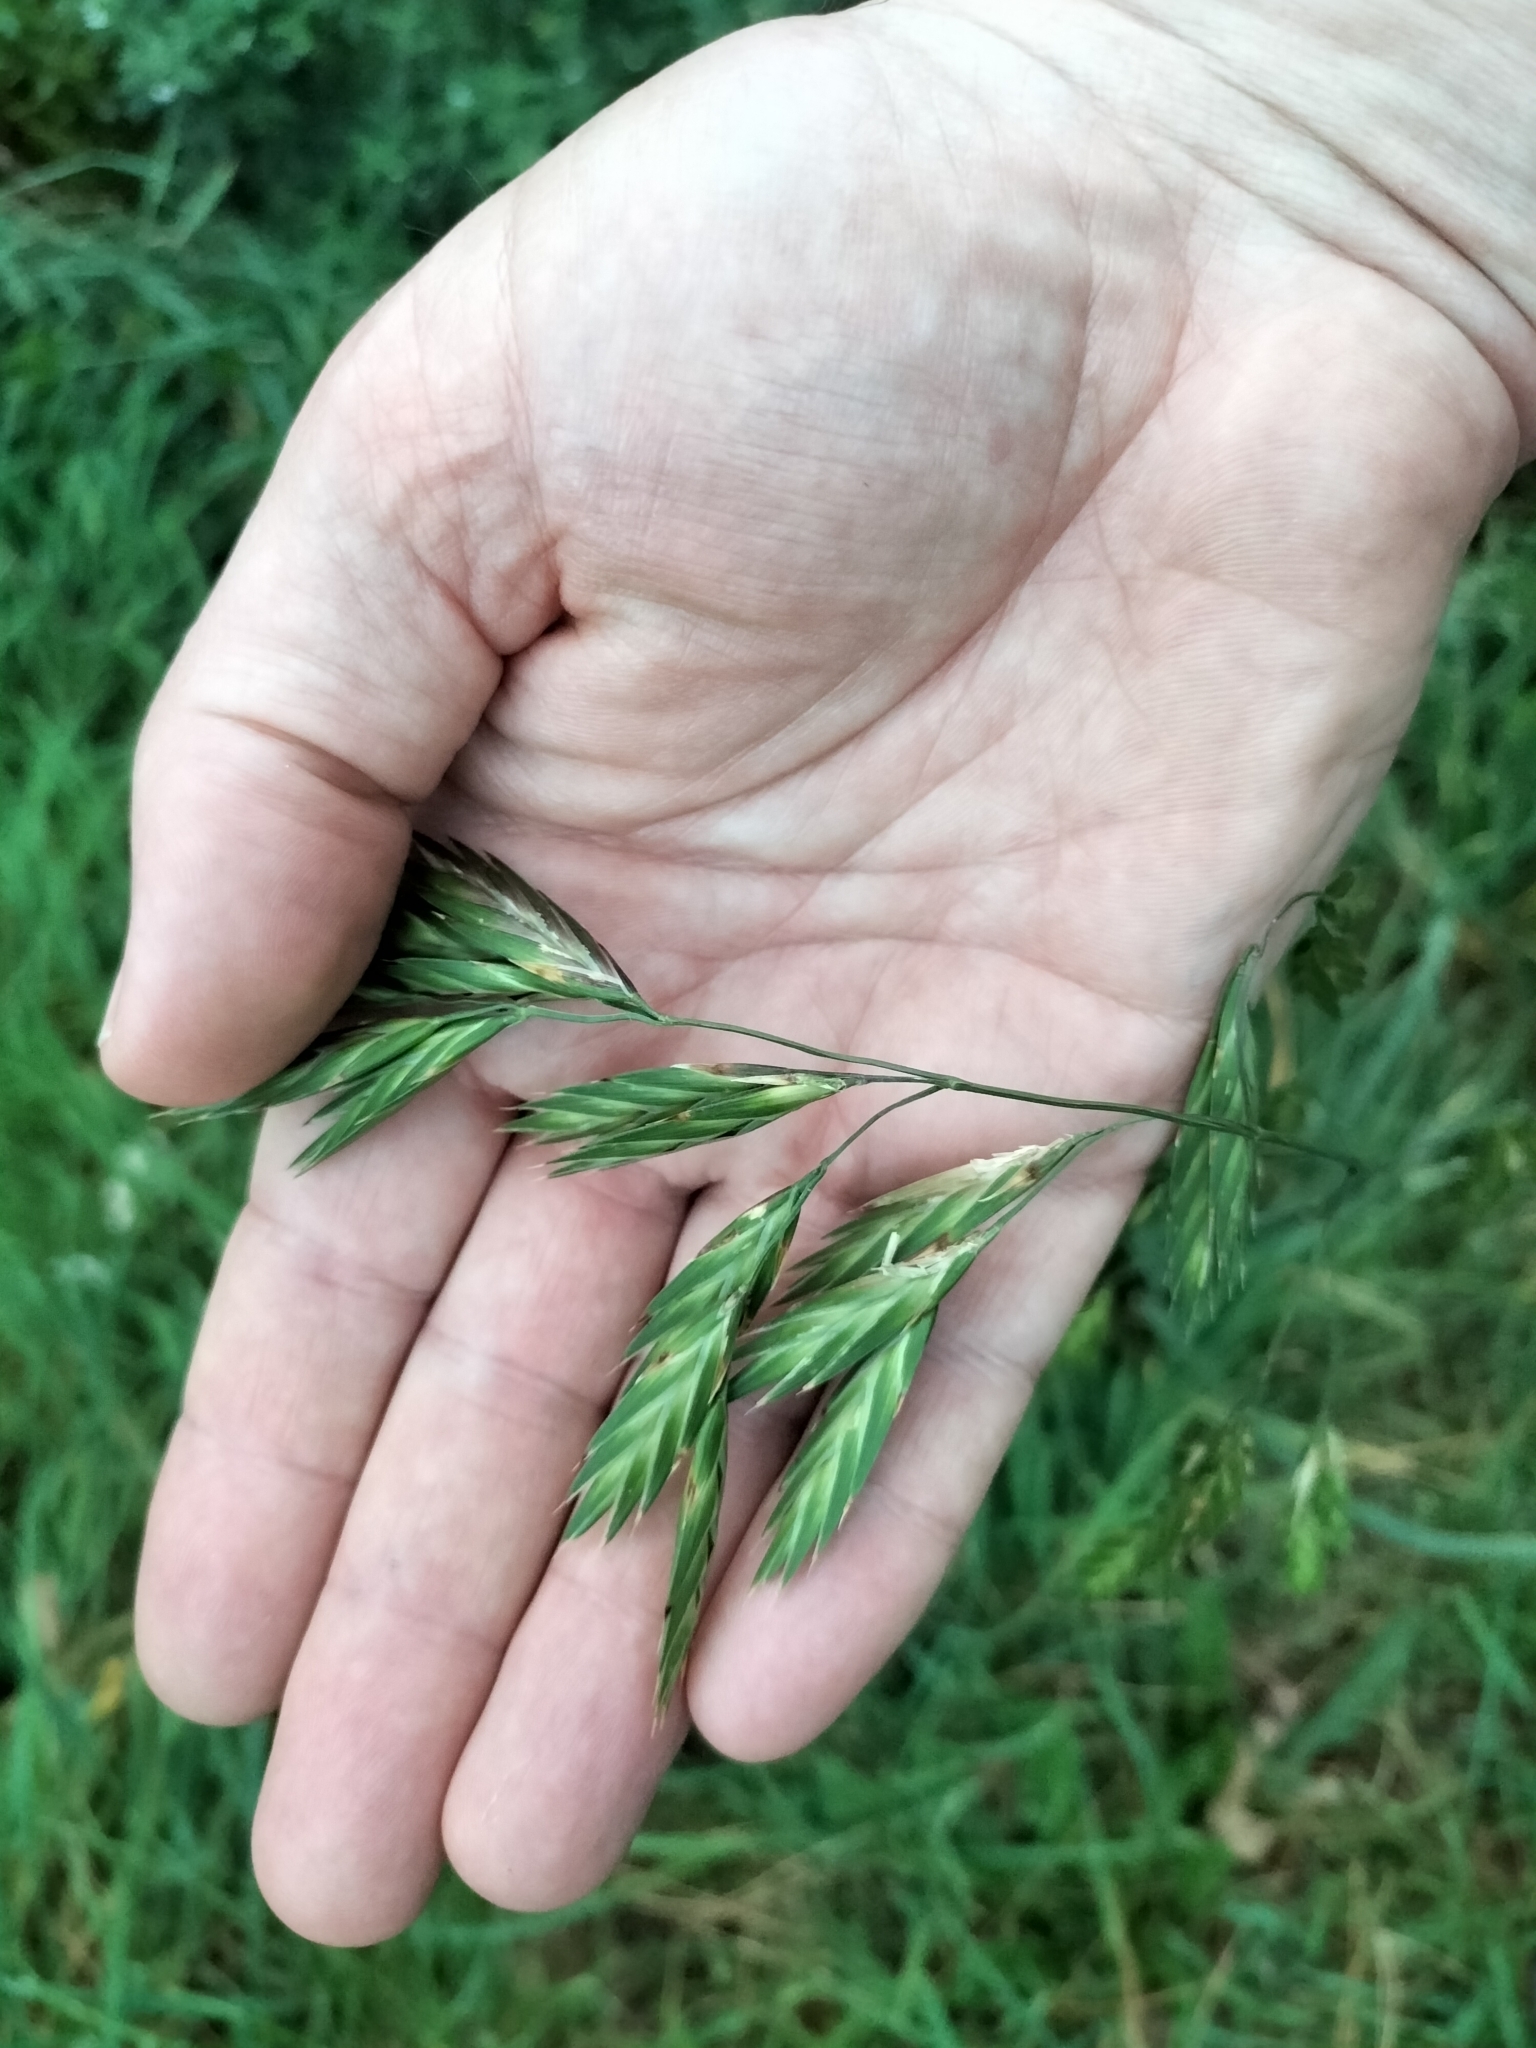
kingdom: Plantae
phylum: Tracheophyta
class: Liliopsida
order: Poales
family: Poaceae
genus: Bromus
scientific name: Bromus catharticus
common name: Rescuegrass
